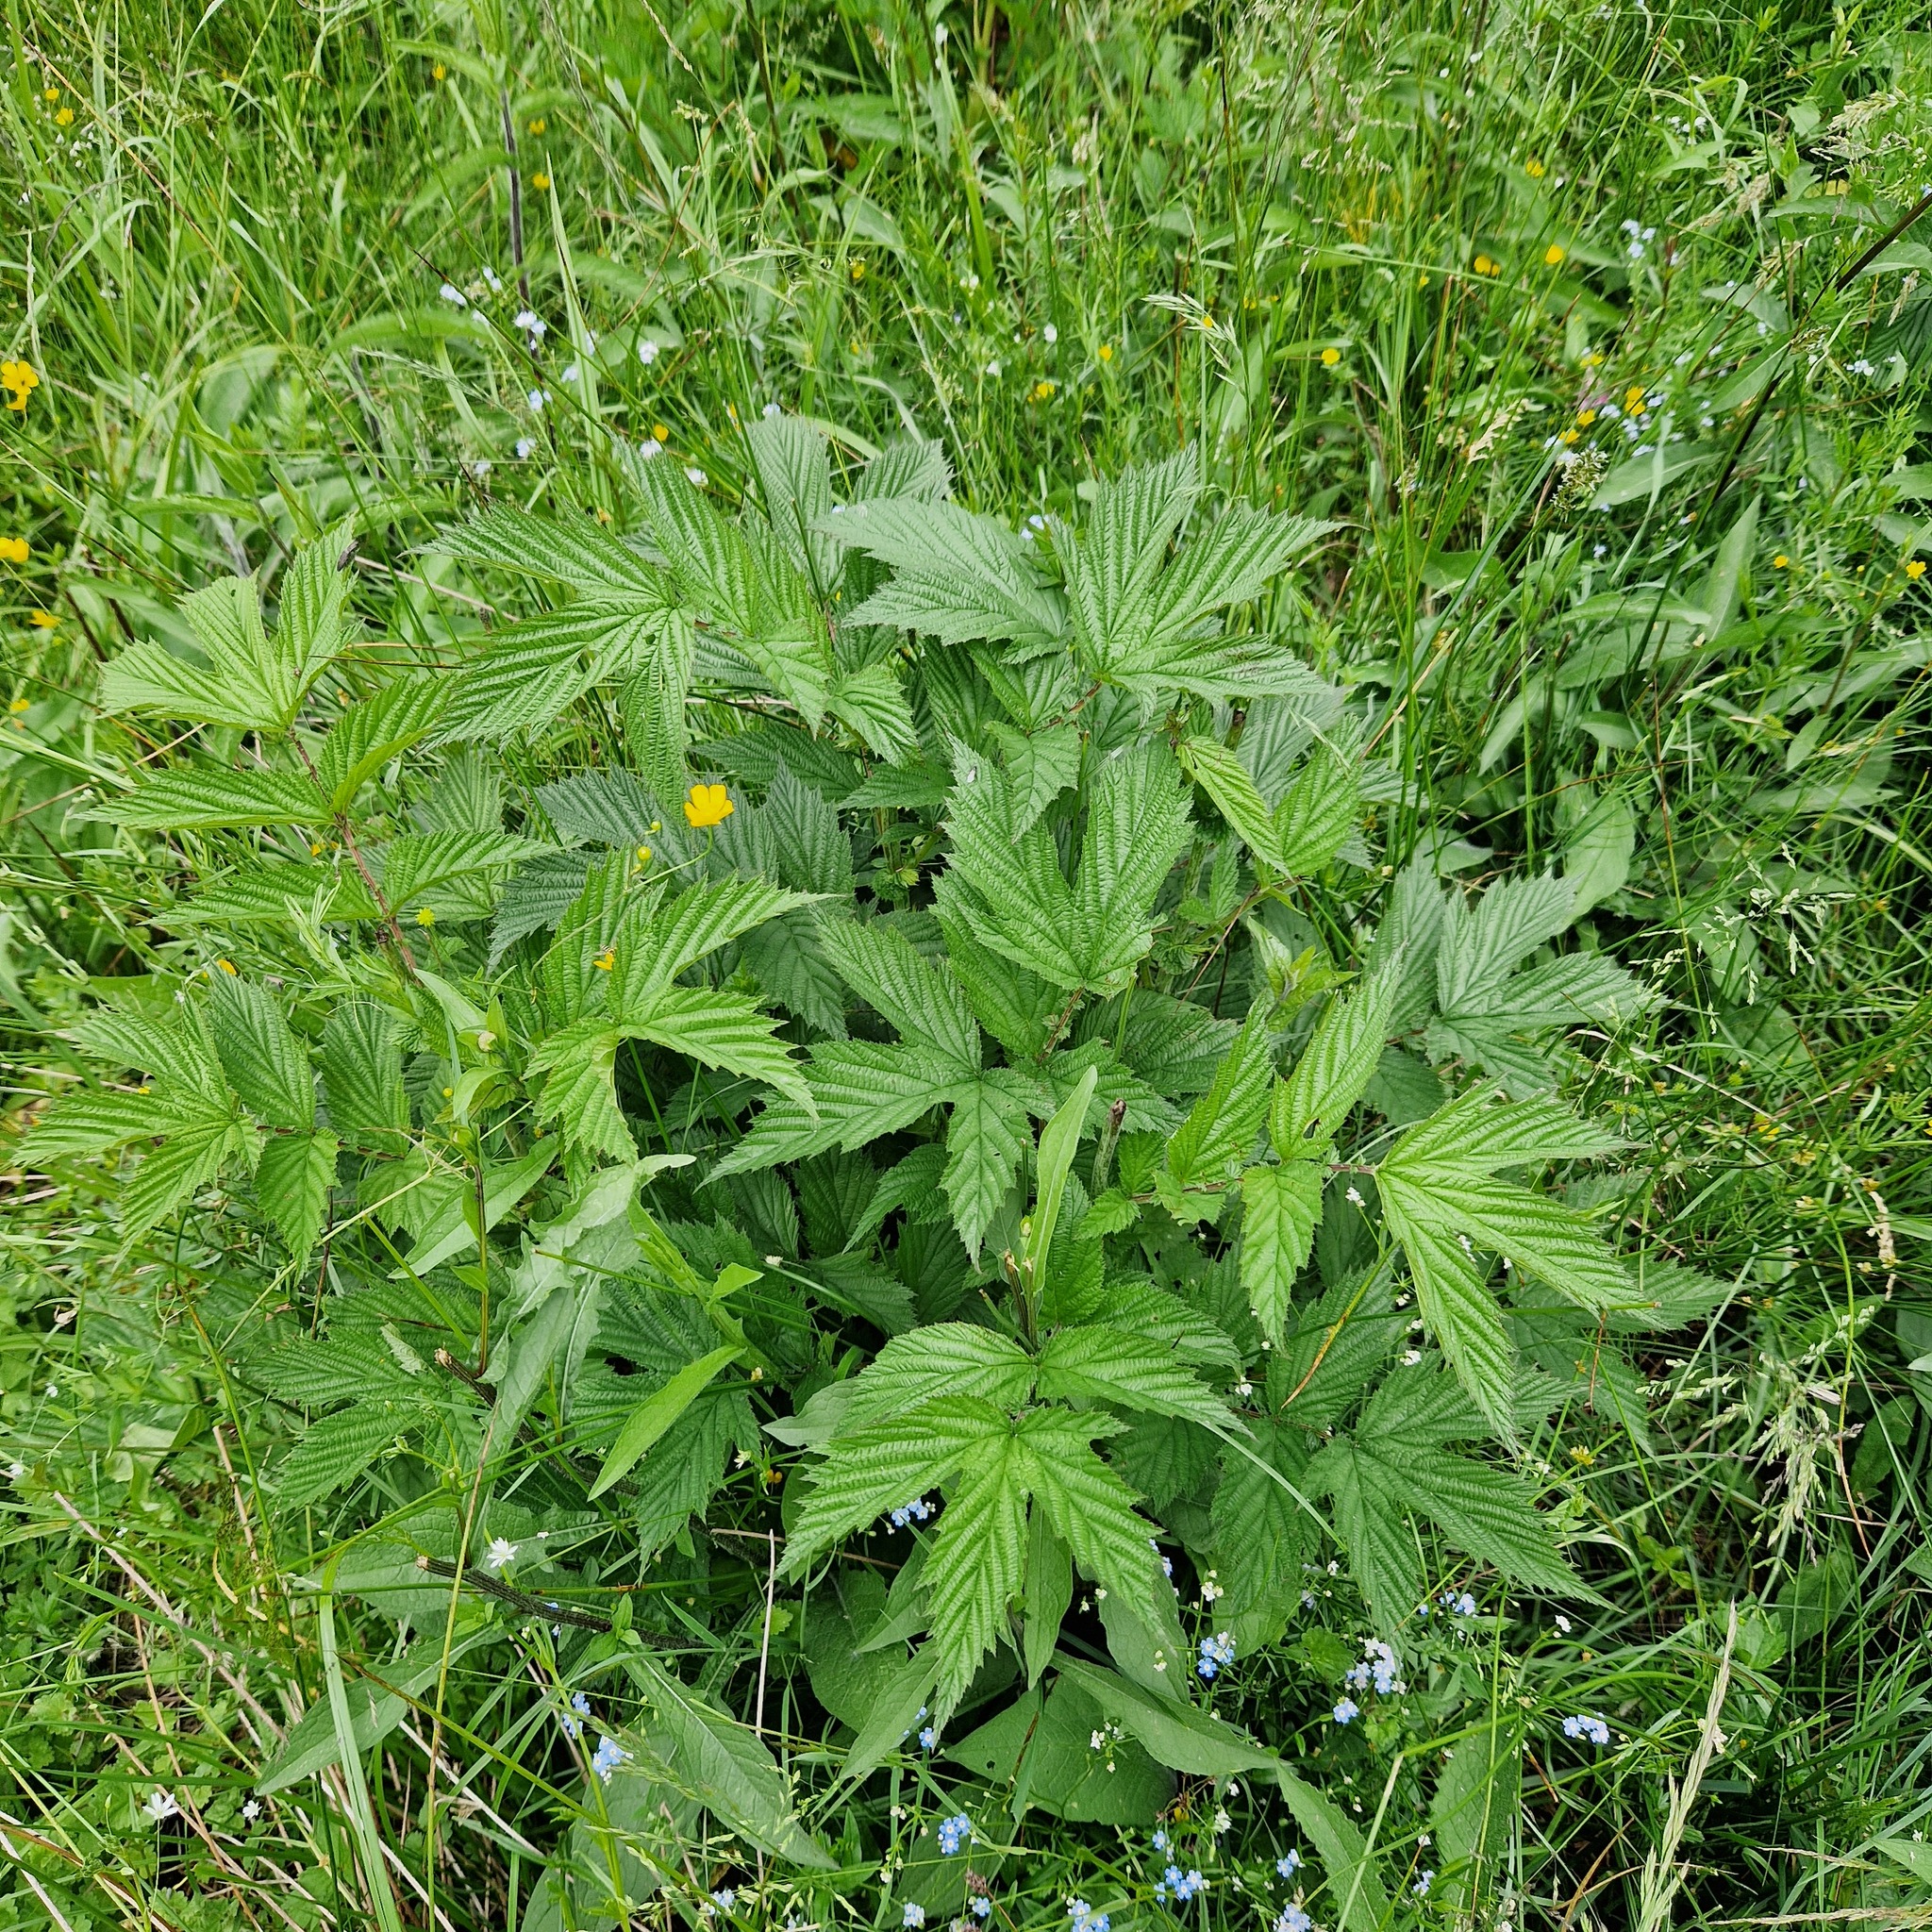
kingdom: Plantae
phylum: Tracheophyta
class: Magnoliopsida
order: Rosales
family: Rosaceae
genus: Filipendula
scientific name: Filipendula ulmaria
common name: Meadowsweet
